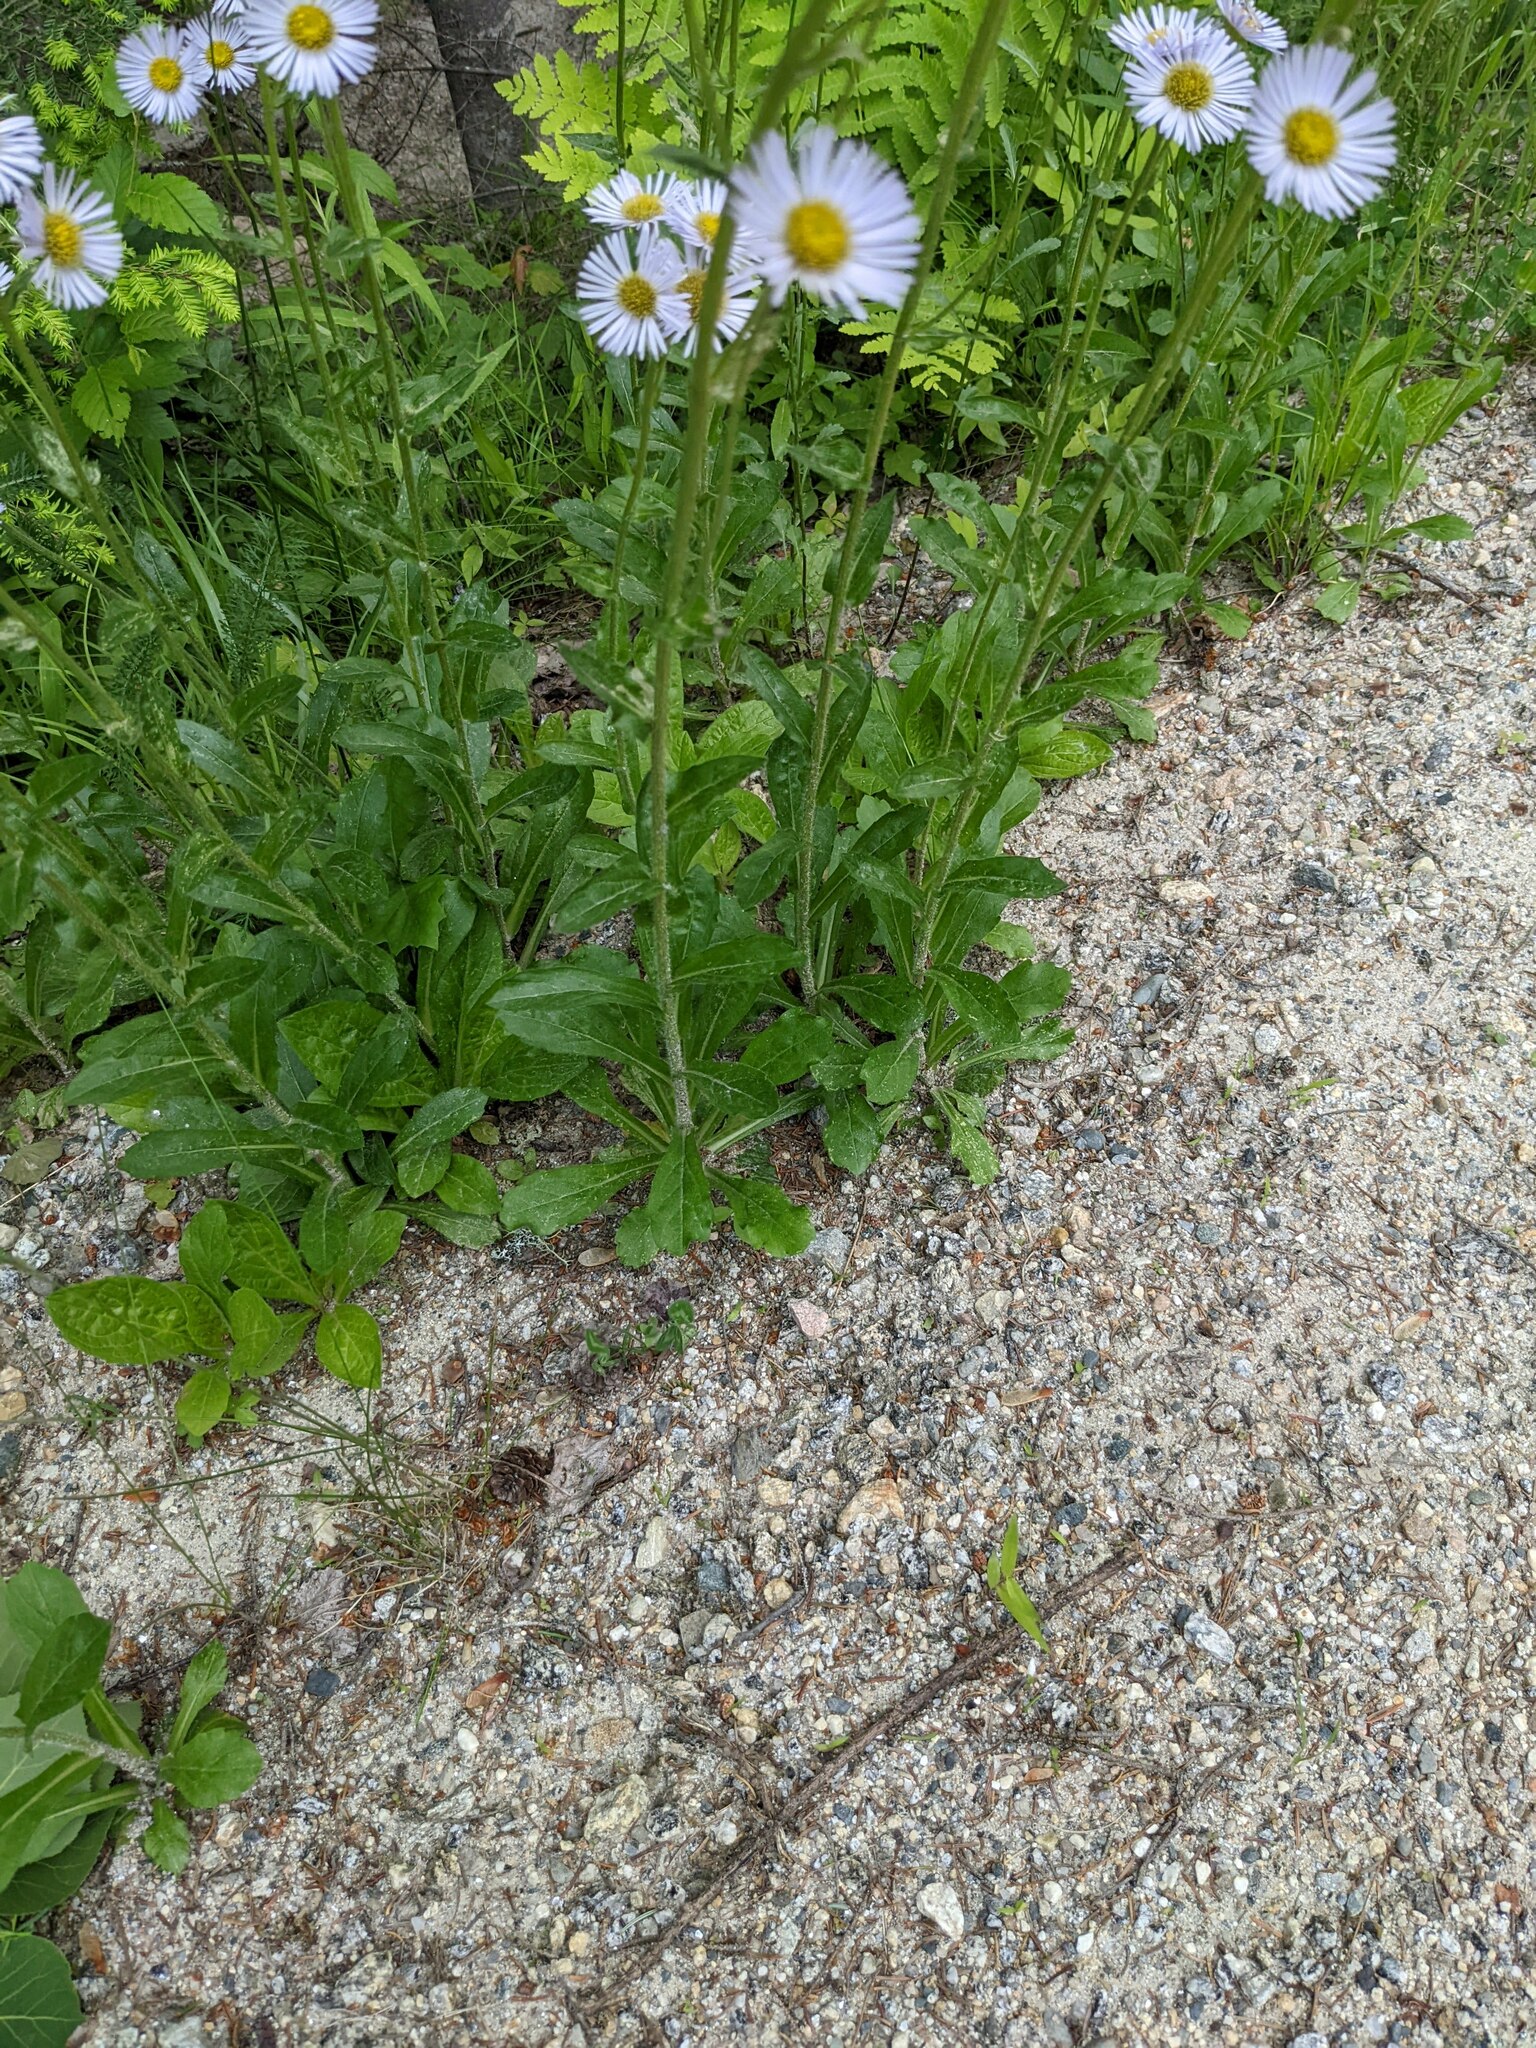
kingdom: Plantae
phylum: Tracheophyta
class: Magnoliopsida
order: Asterales
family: Asteraceae
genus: Erigeron
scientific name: Erigeron pulchellus
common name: Hairy fleabane
